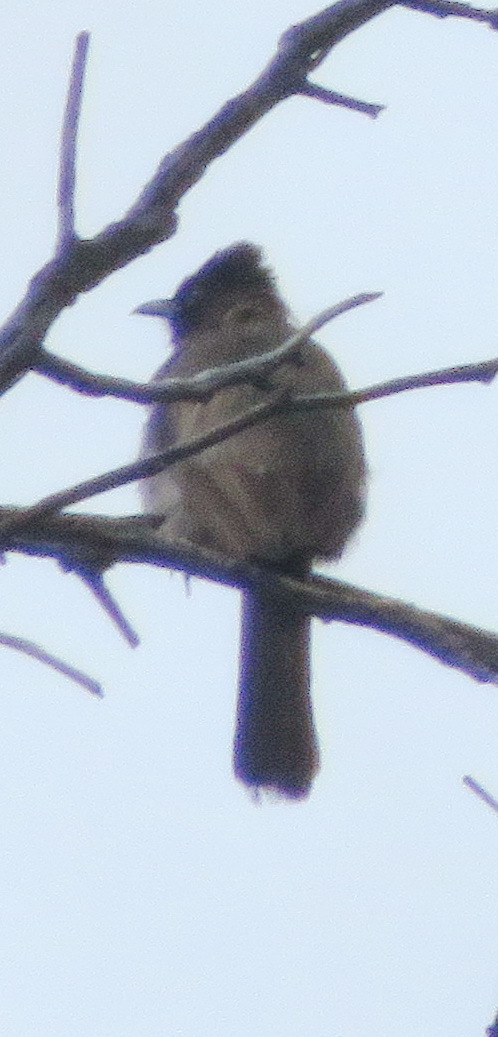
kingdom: Animalia
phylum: Chordata
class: Aves
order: Passeriformes
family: Pycnonotidae
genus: Pycnonotus
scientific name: Pycnonotus barbatus
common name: Common bulbul
